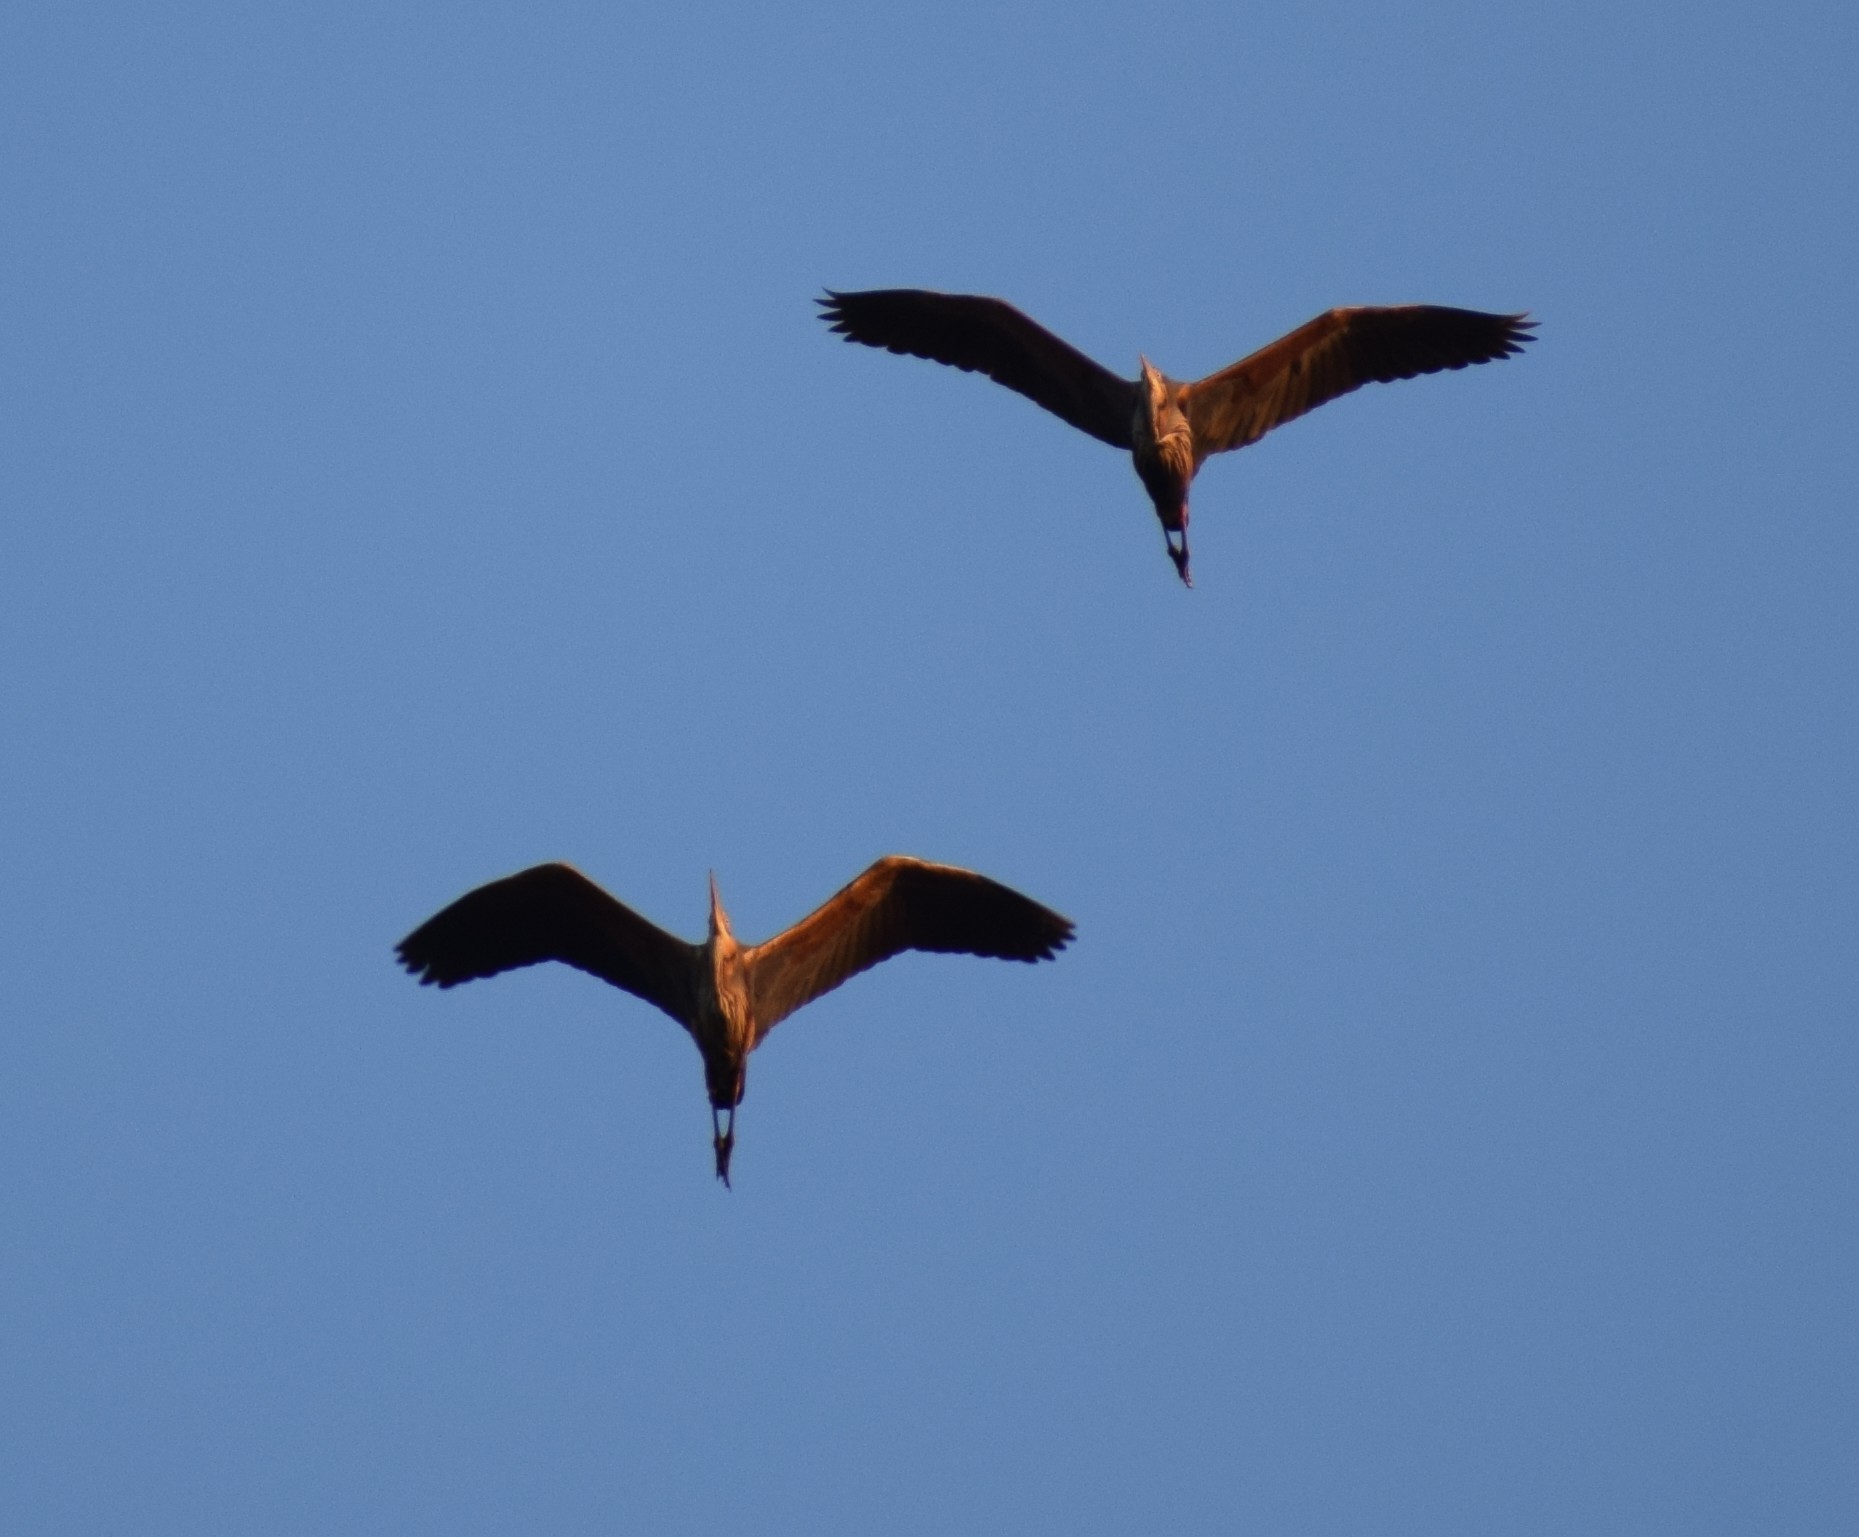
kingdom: Animalia
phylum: Chordata
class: Aves
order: Pelecaniformes
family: Ardeidae
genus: Ardea
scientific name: Ardea cinerea
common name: Grey heron
